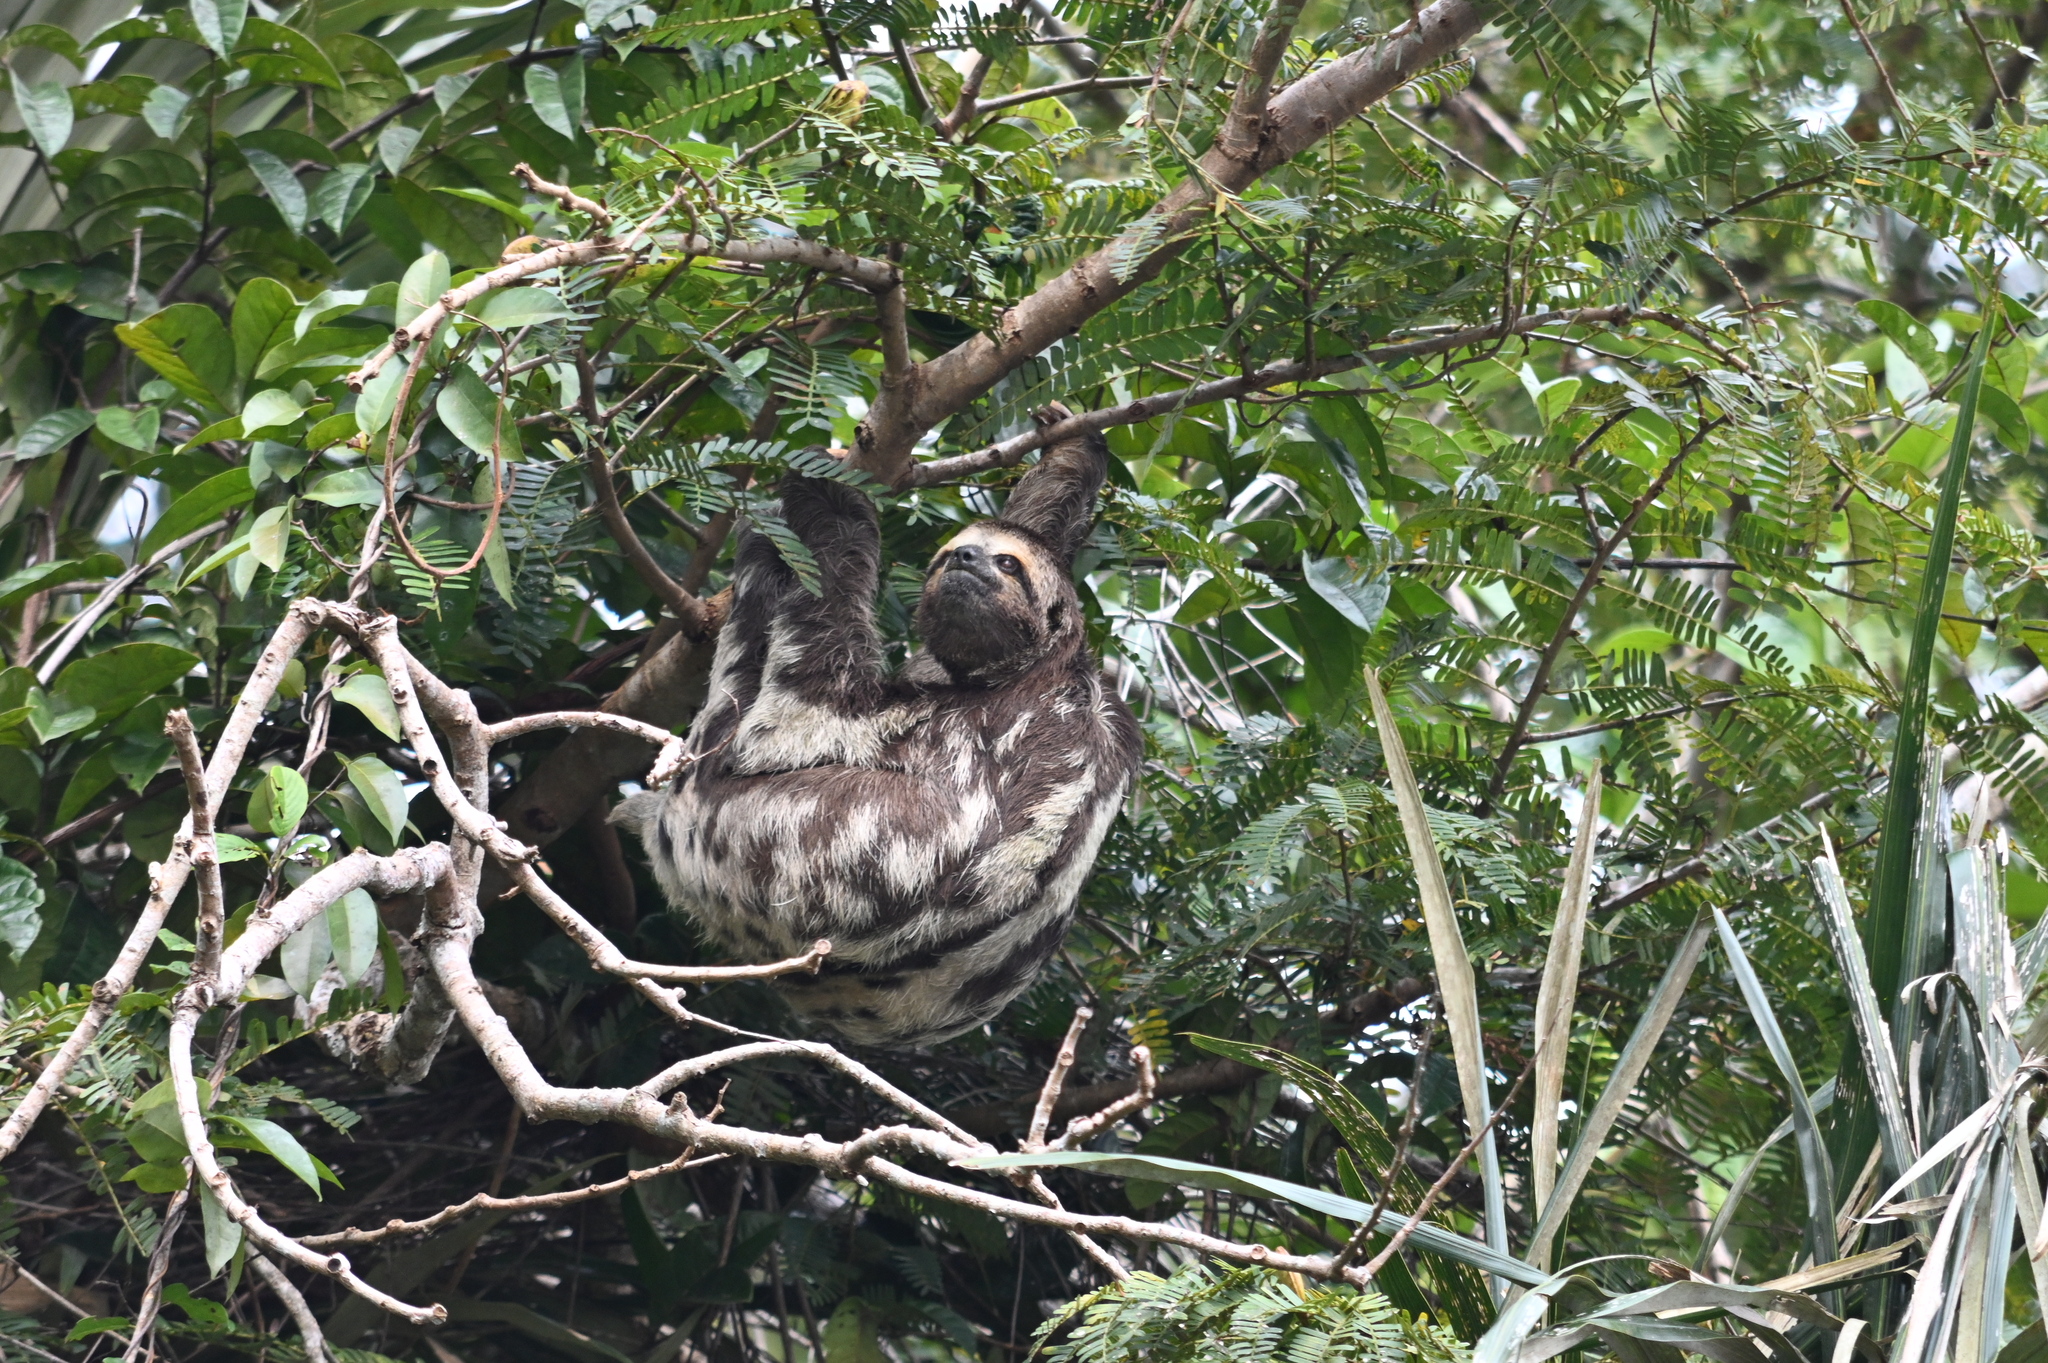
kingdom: Animalia
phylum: Chordata
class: Mammalia
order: Pilosa
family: Bradypodidae
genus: Bradypus
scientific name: Bradypus variegatus
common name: Brown-throated three-toed sloth
